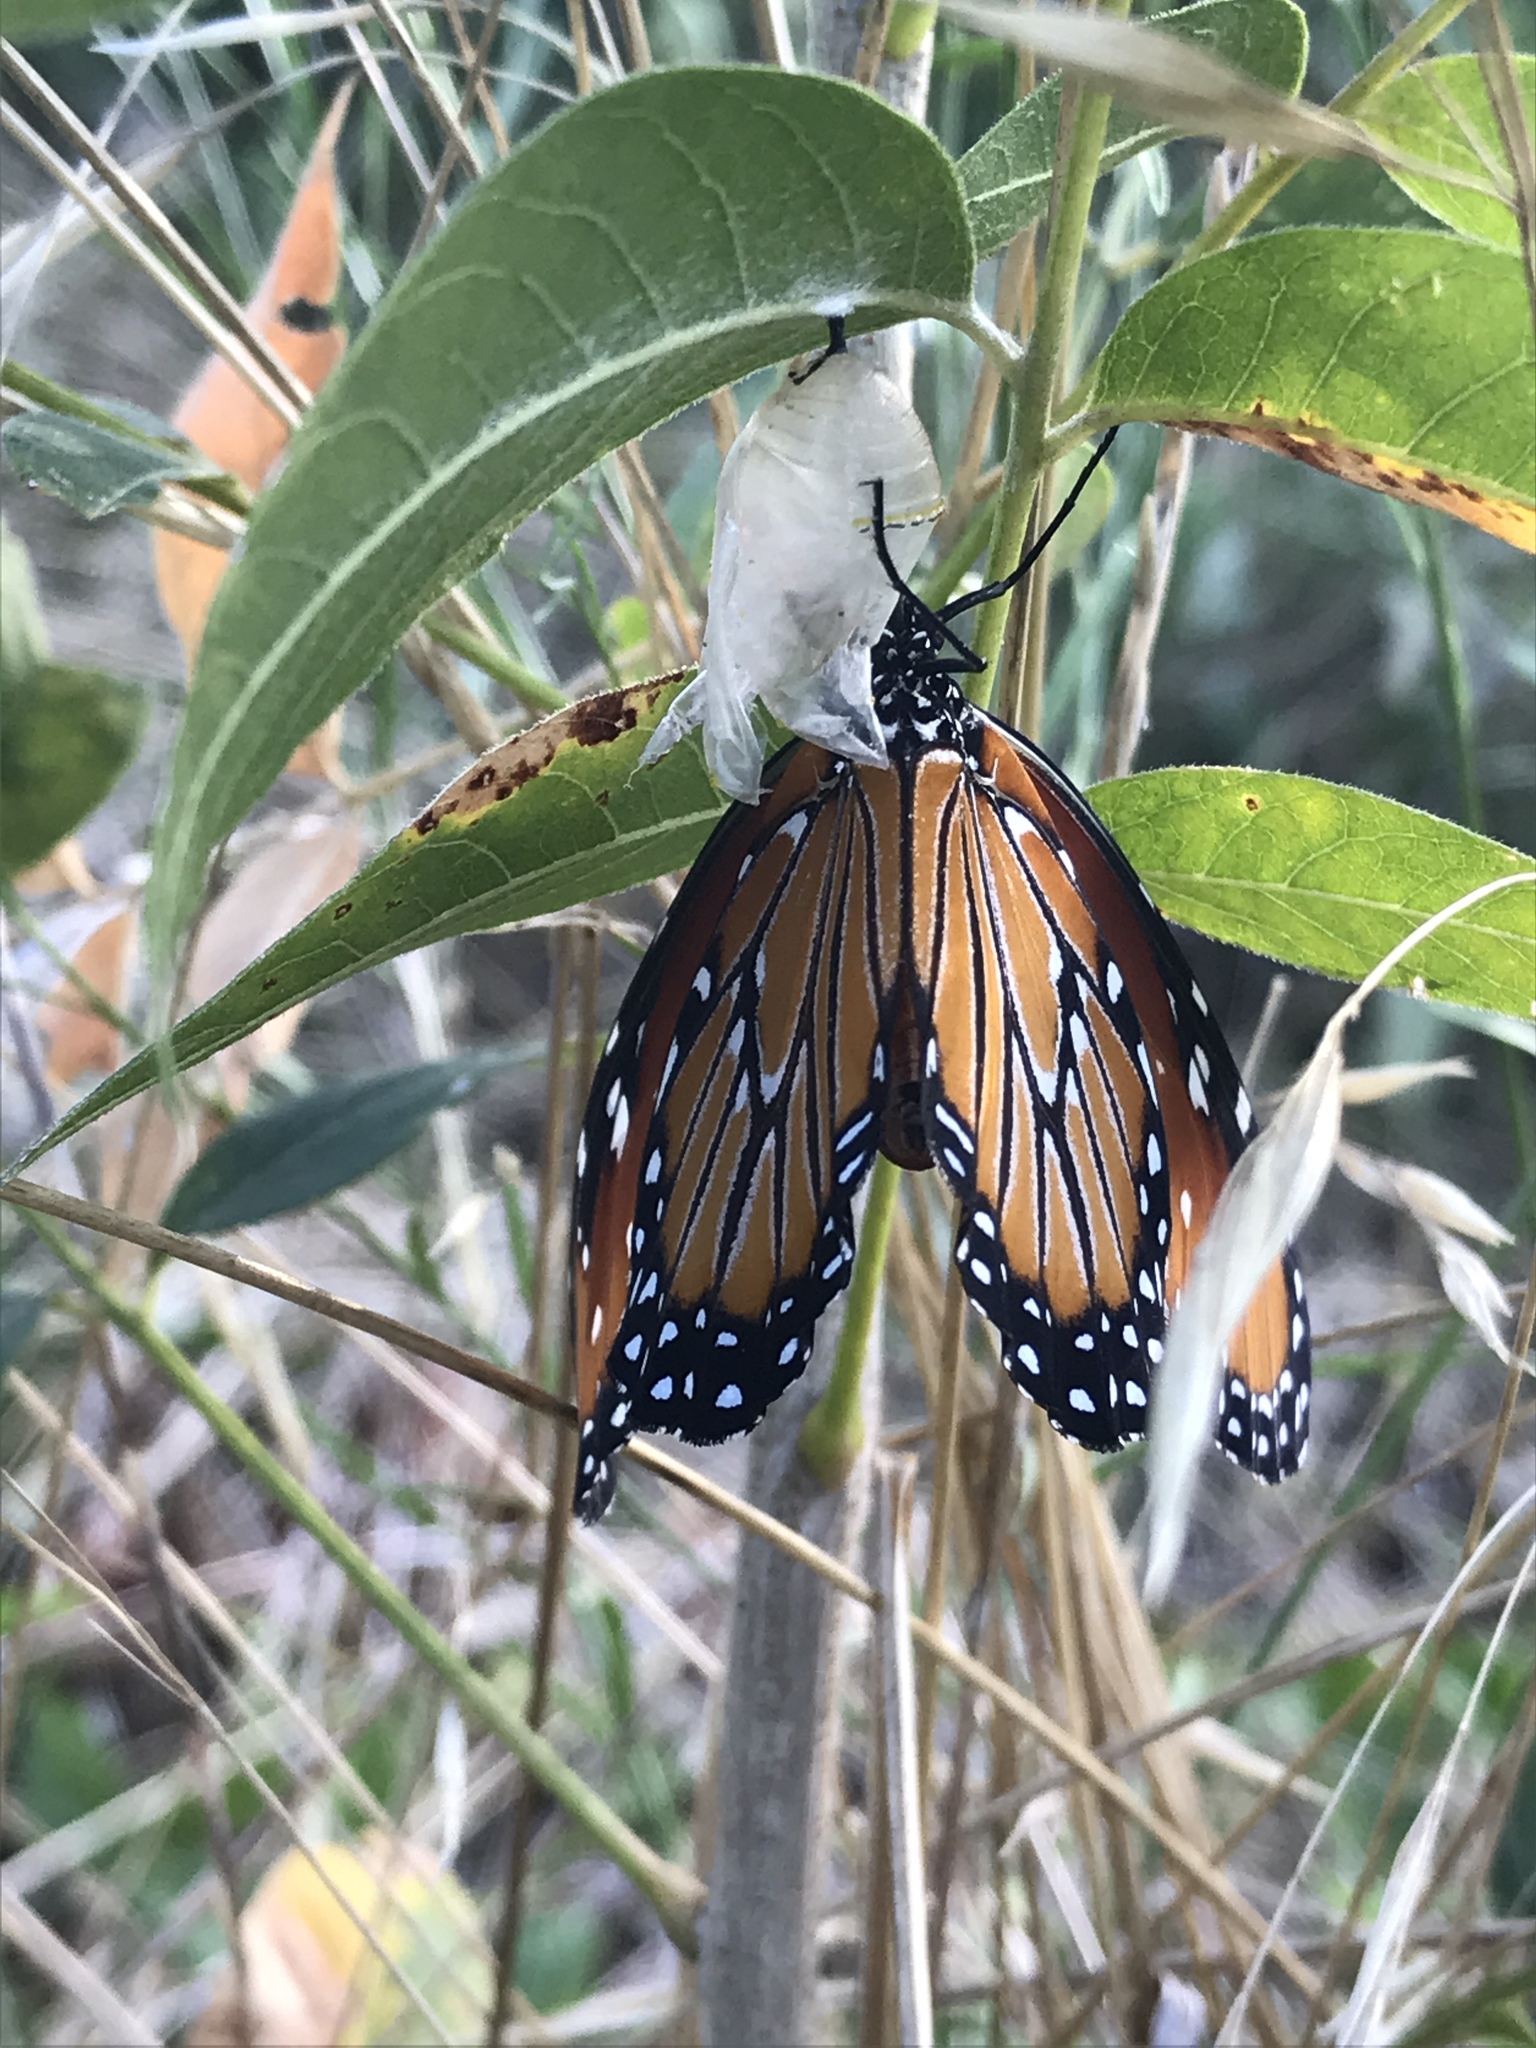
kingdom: Animalia
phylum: Arthropoda
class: Insecta
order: Lepidoptera
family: Nymphalidae
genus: Danaus
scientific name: Danaus gilippus
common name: Queen
